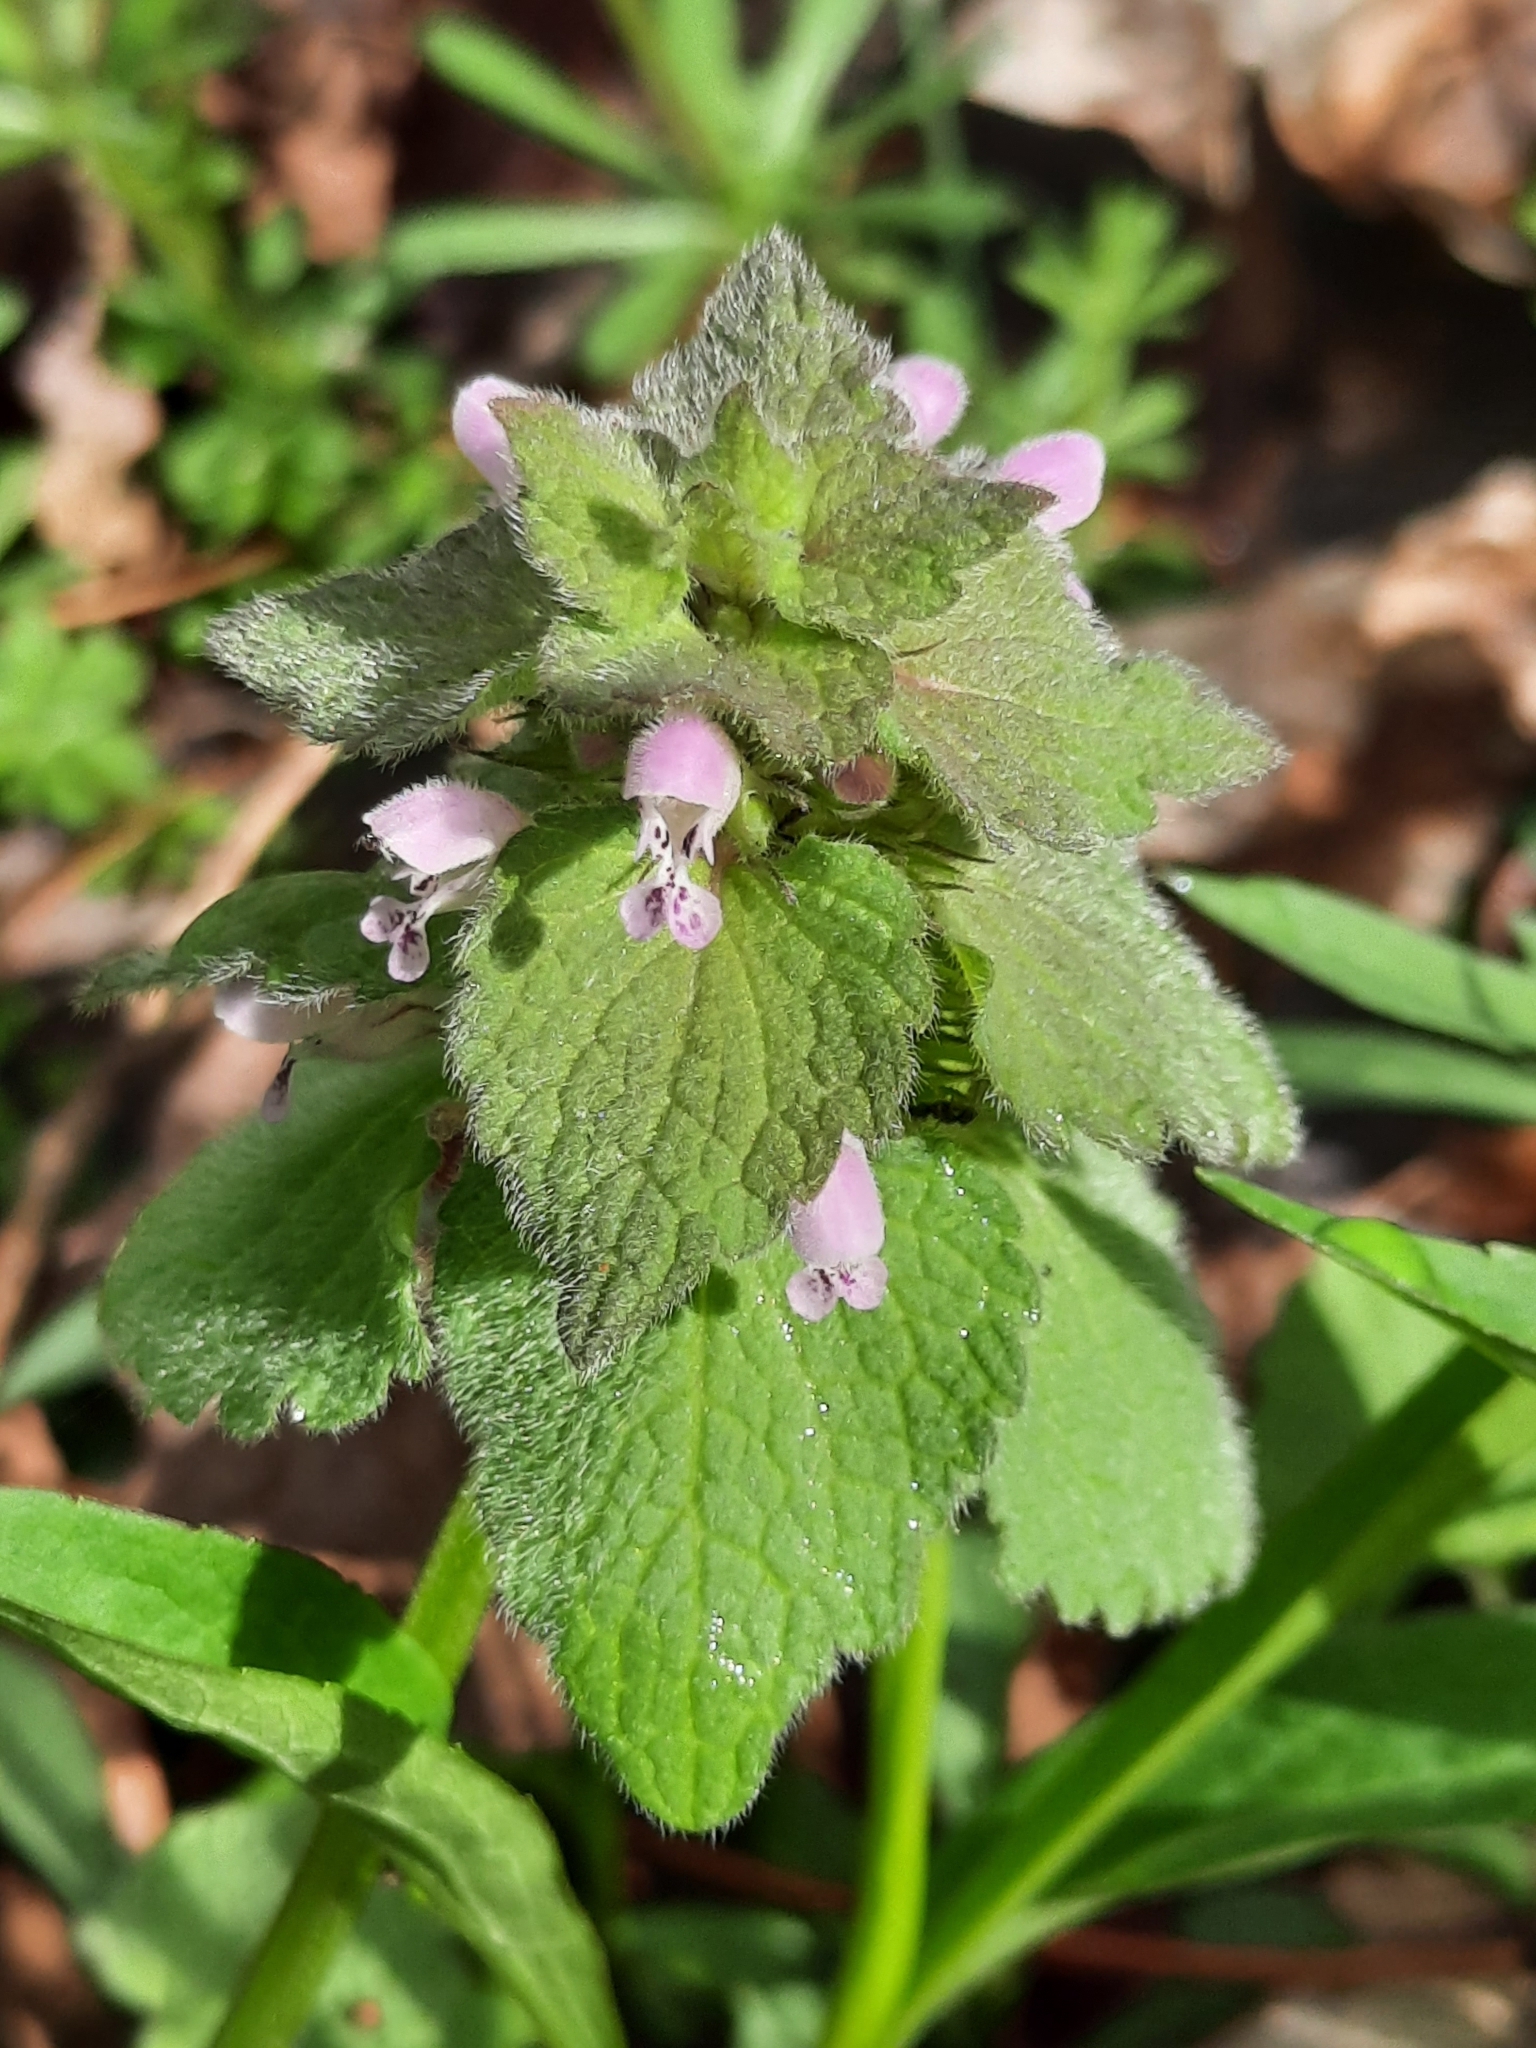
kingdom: Plantae
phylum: Tracheophyta
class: Magnoliopsida
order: Lamiales
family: Lamiaceae
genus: Lamium
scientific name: Lamium purpureum
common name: Red dead-nettle
